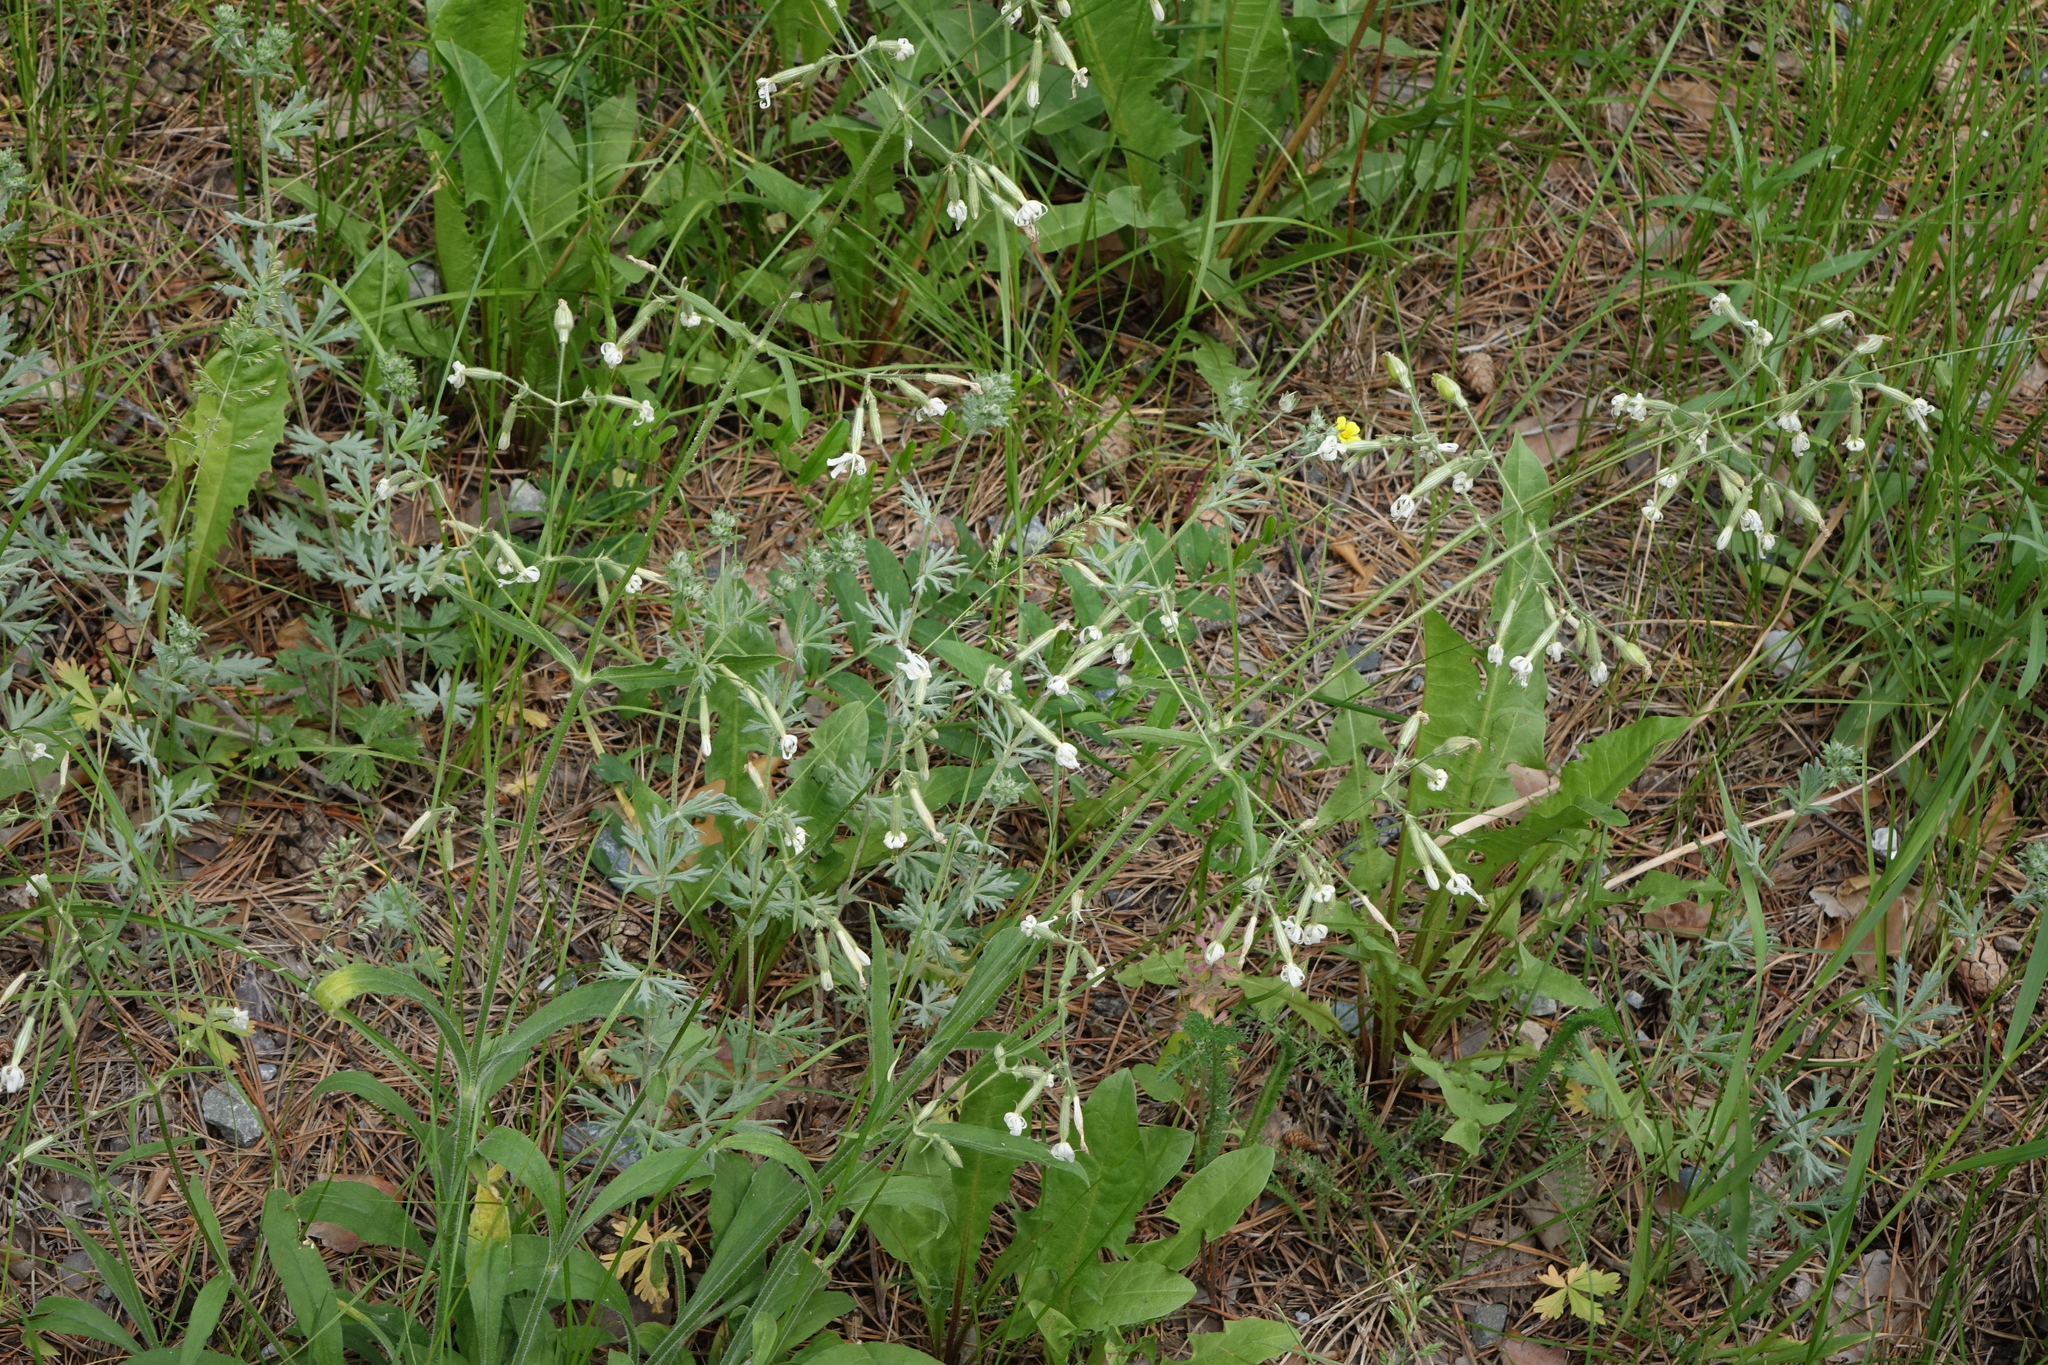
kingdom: Plantae
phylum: Tracheophyta
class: Magnoliopsida
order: Caryophyllales
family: Caryophyllaceae
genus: Silene
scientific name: Silene nutans
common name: Nottingham catchfly
